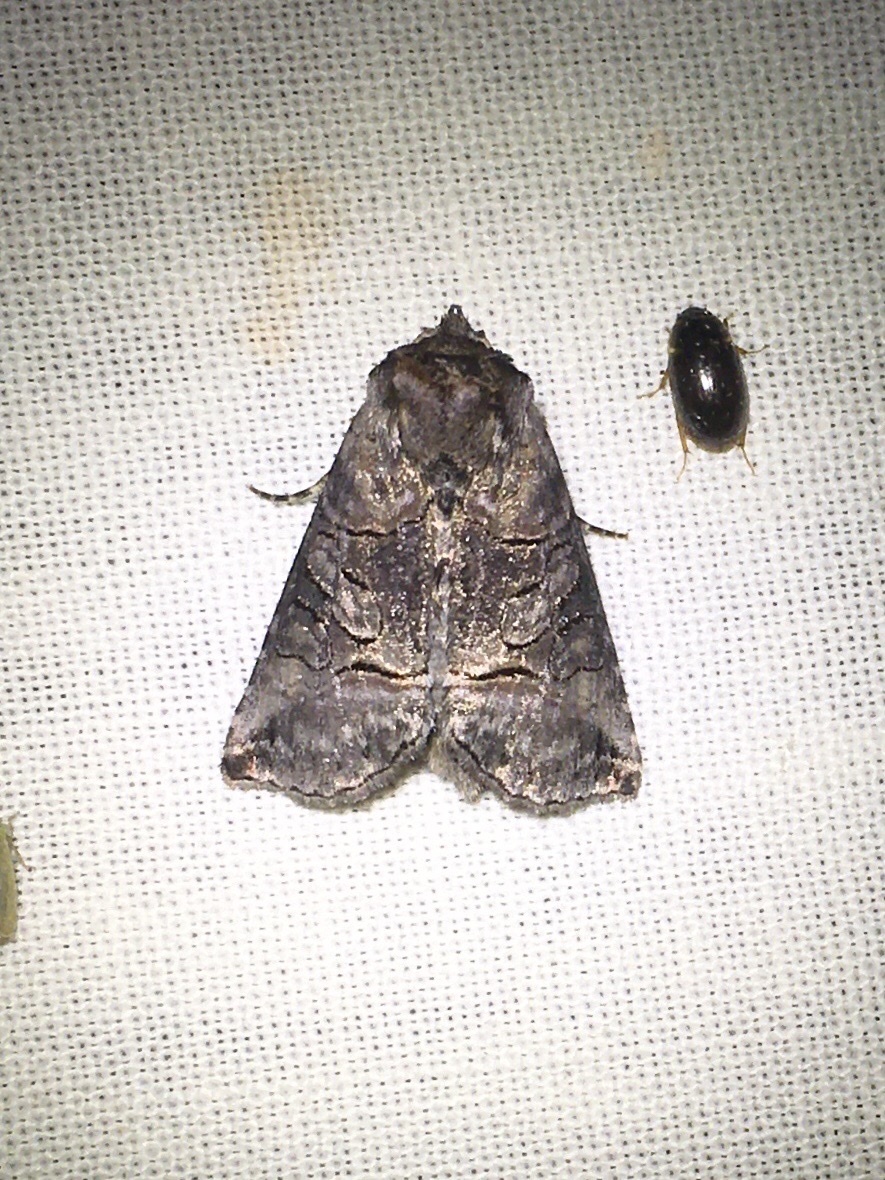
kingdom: Animalia
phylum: Arthropoda
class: Insecta
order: Lepidoptera
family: Noctuidae
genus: Abrostola
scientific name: Abrostola urentis
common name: Spectacled nettle moth
